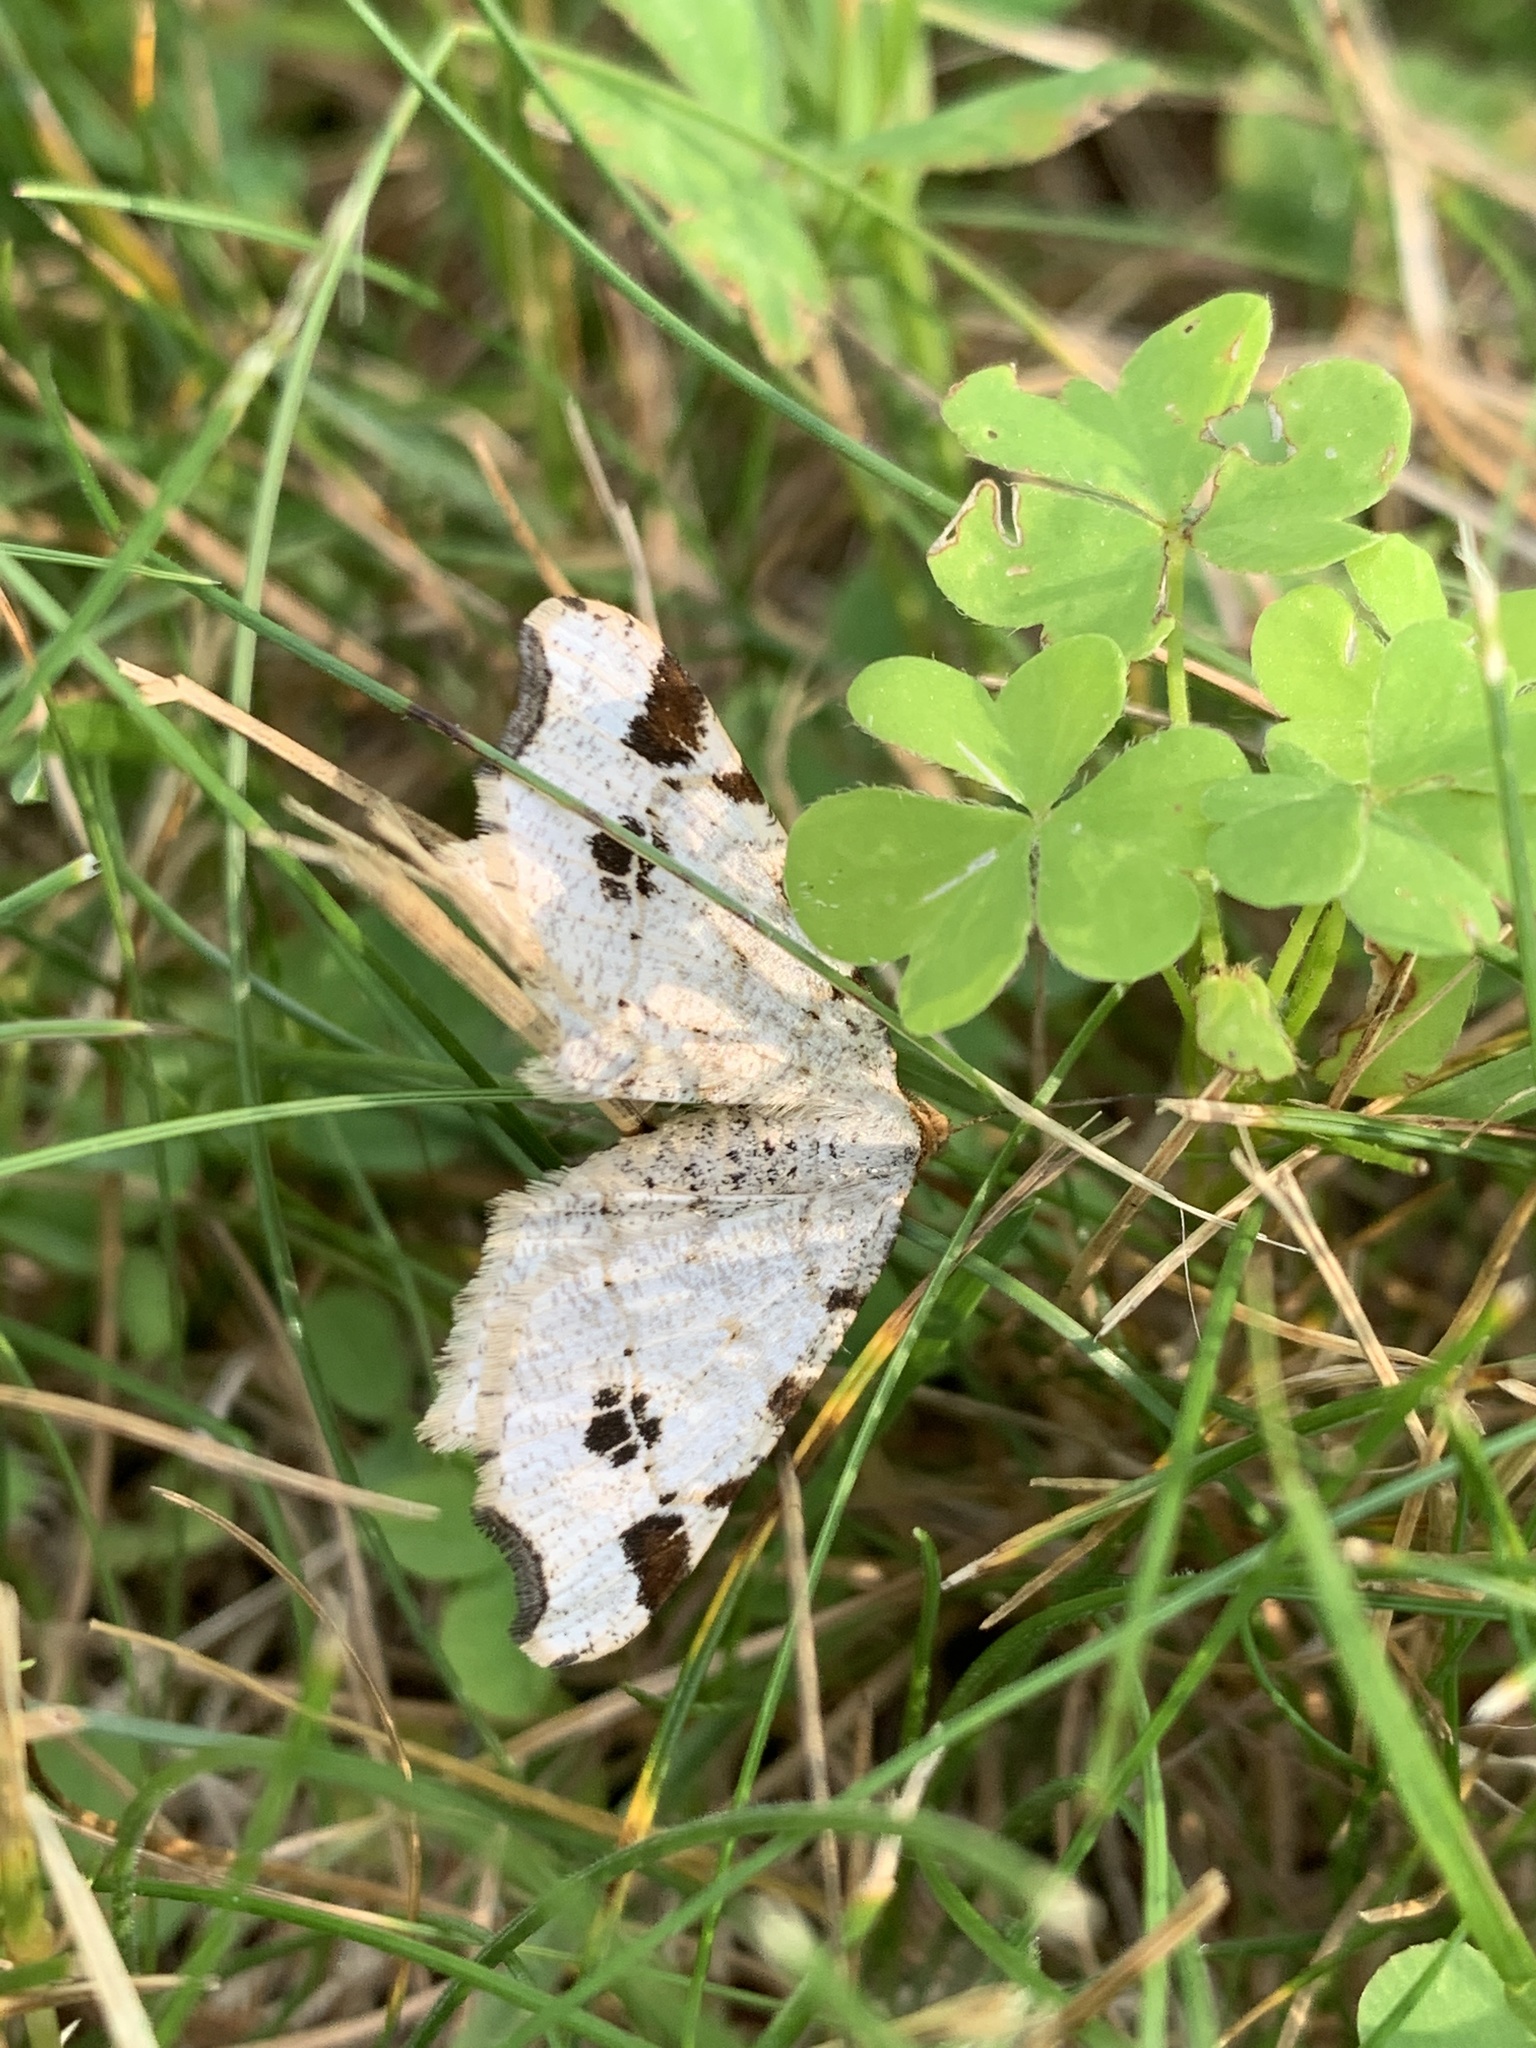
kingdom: Animalia
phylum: Arthropoda
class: Insecta
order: Lepidoptera
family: Geometridae
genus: Macaria
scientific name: Macaria ulsterata
